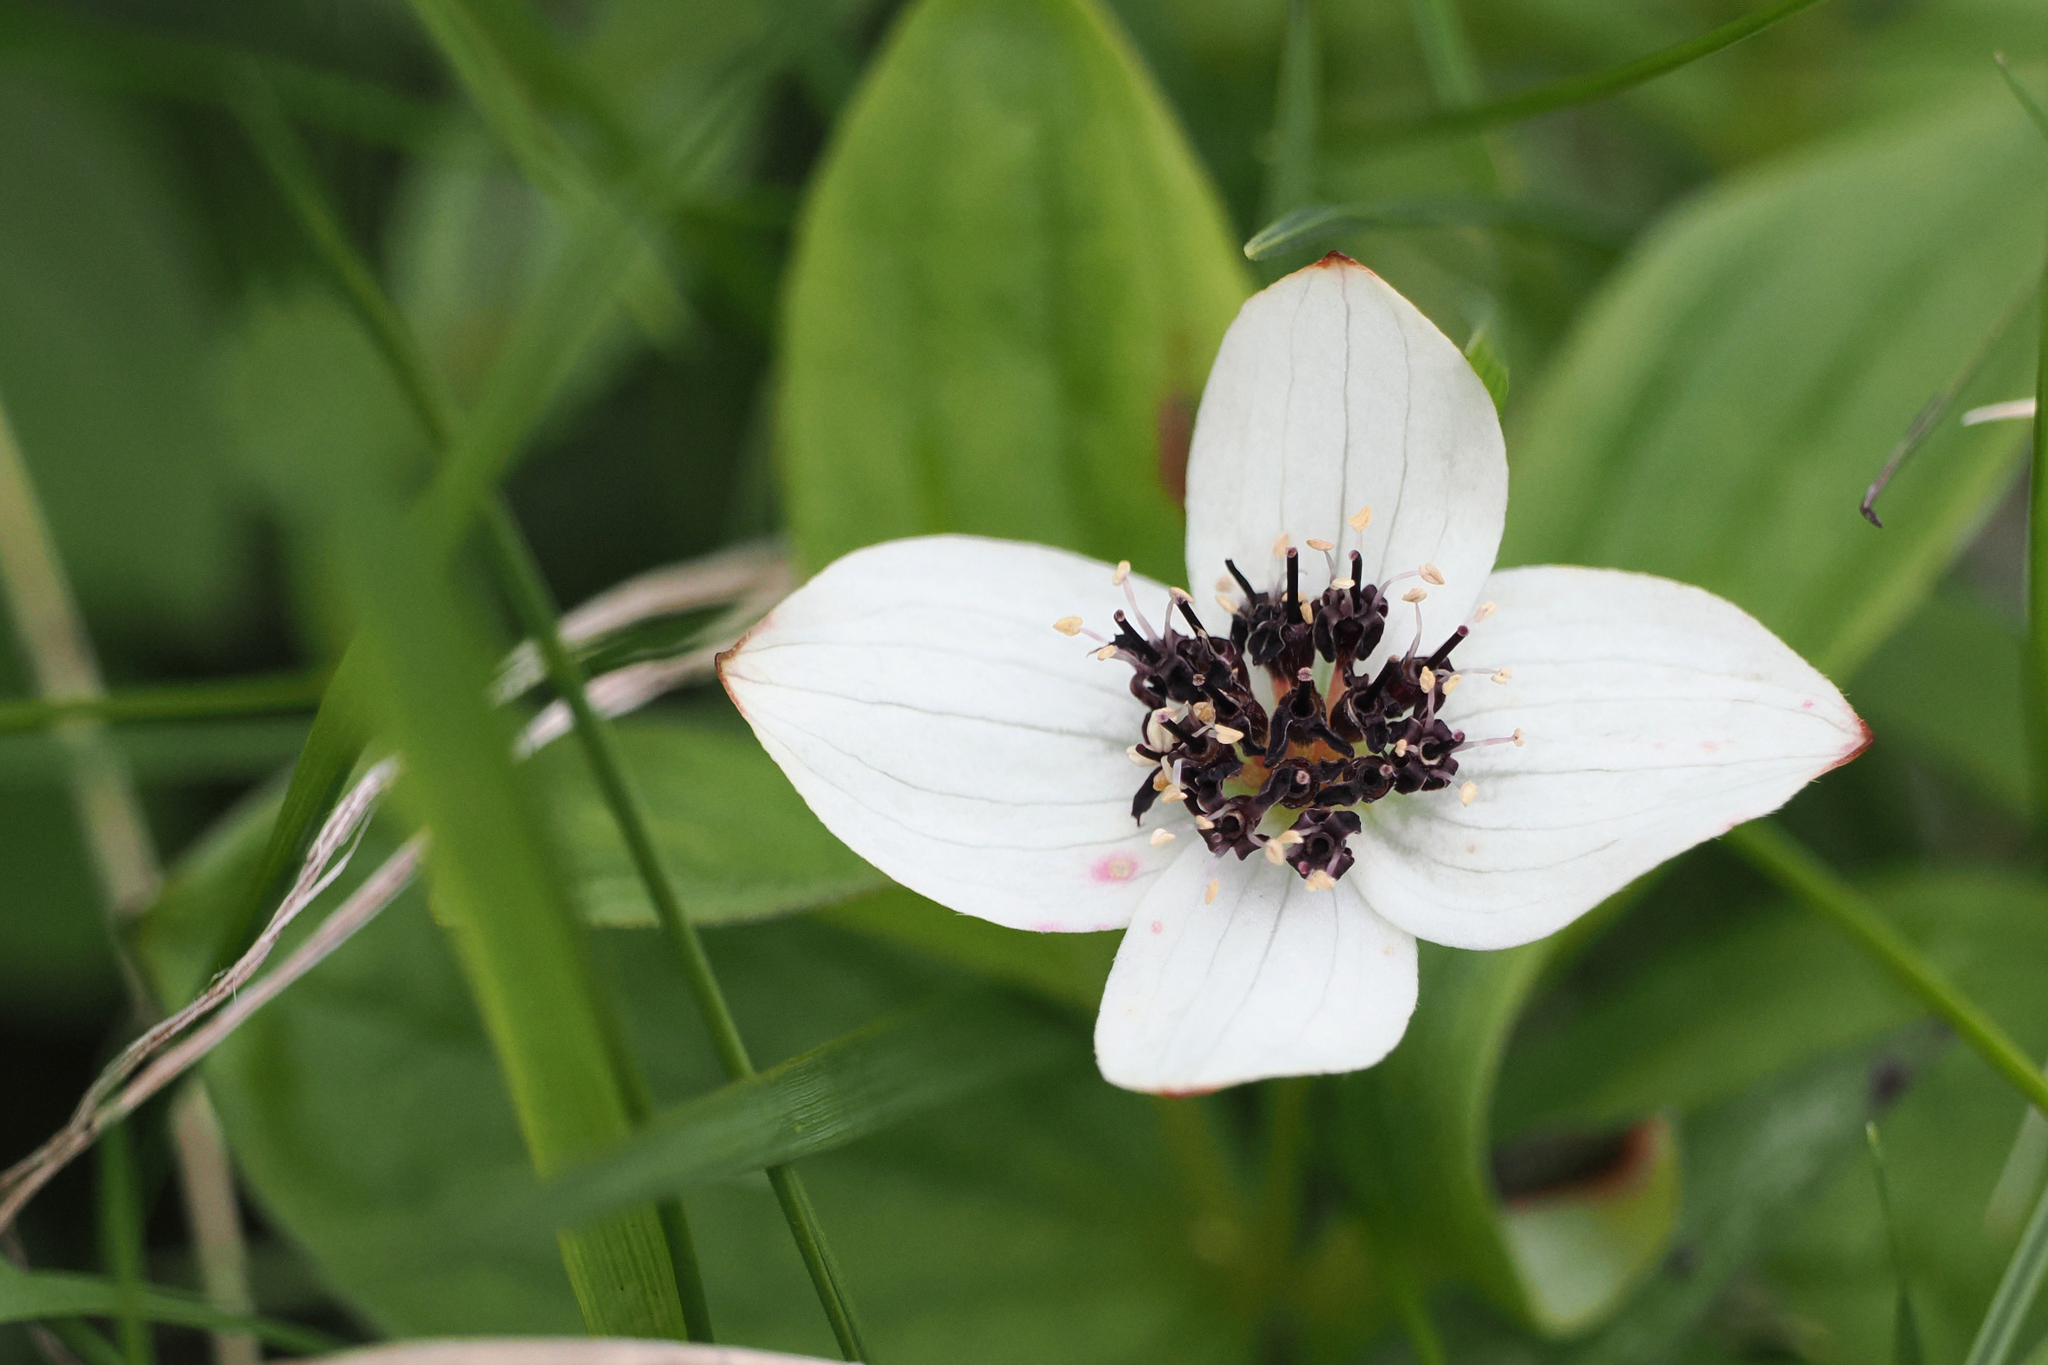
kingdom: Plantae
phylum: Tracheophyta
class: Magnoliopsida
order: Cornales
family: Cornaceae
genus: Cornus
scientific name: Cornus suecica
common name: Dwarf cornel
